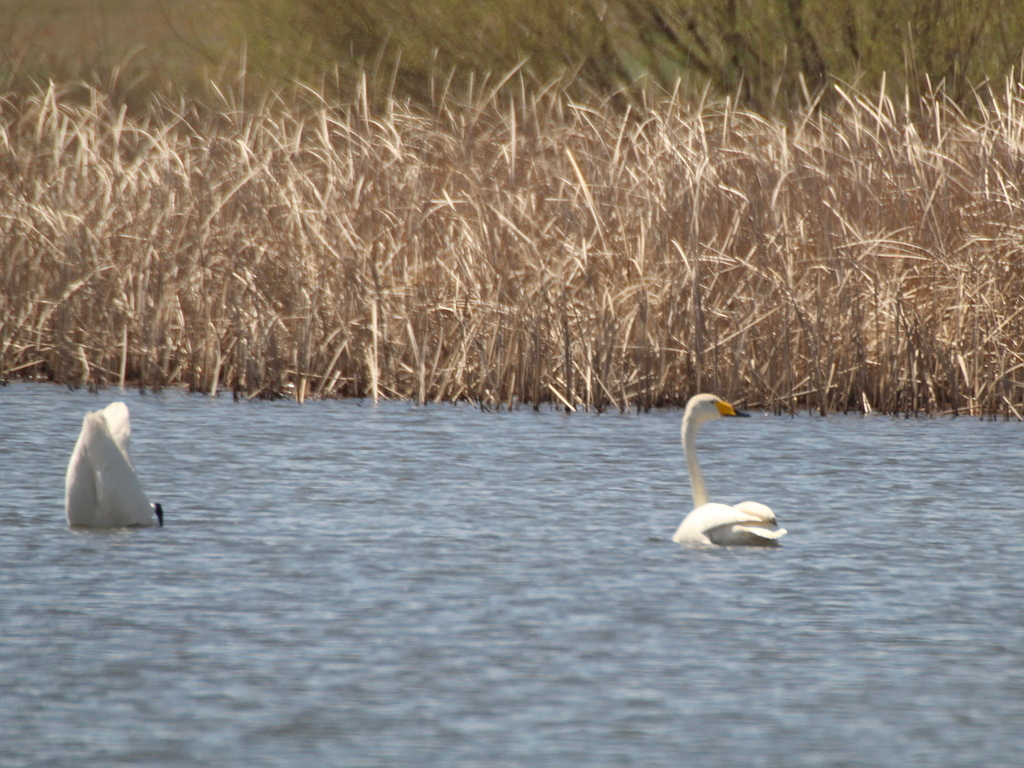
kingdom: Animalia
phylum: Chordata
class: Aves
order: Anseriformes
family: Anatidae
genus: Cygnus
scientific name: Cygnus cygnus
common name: Whooper swan
